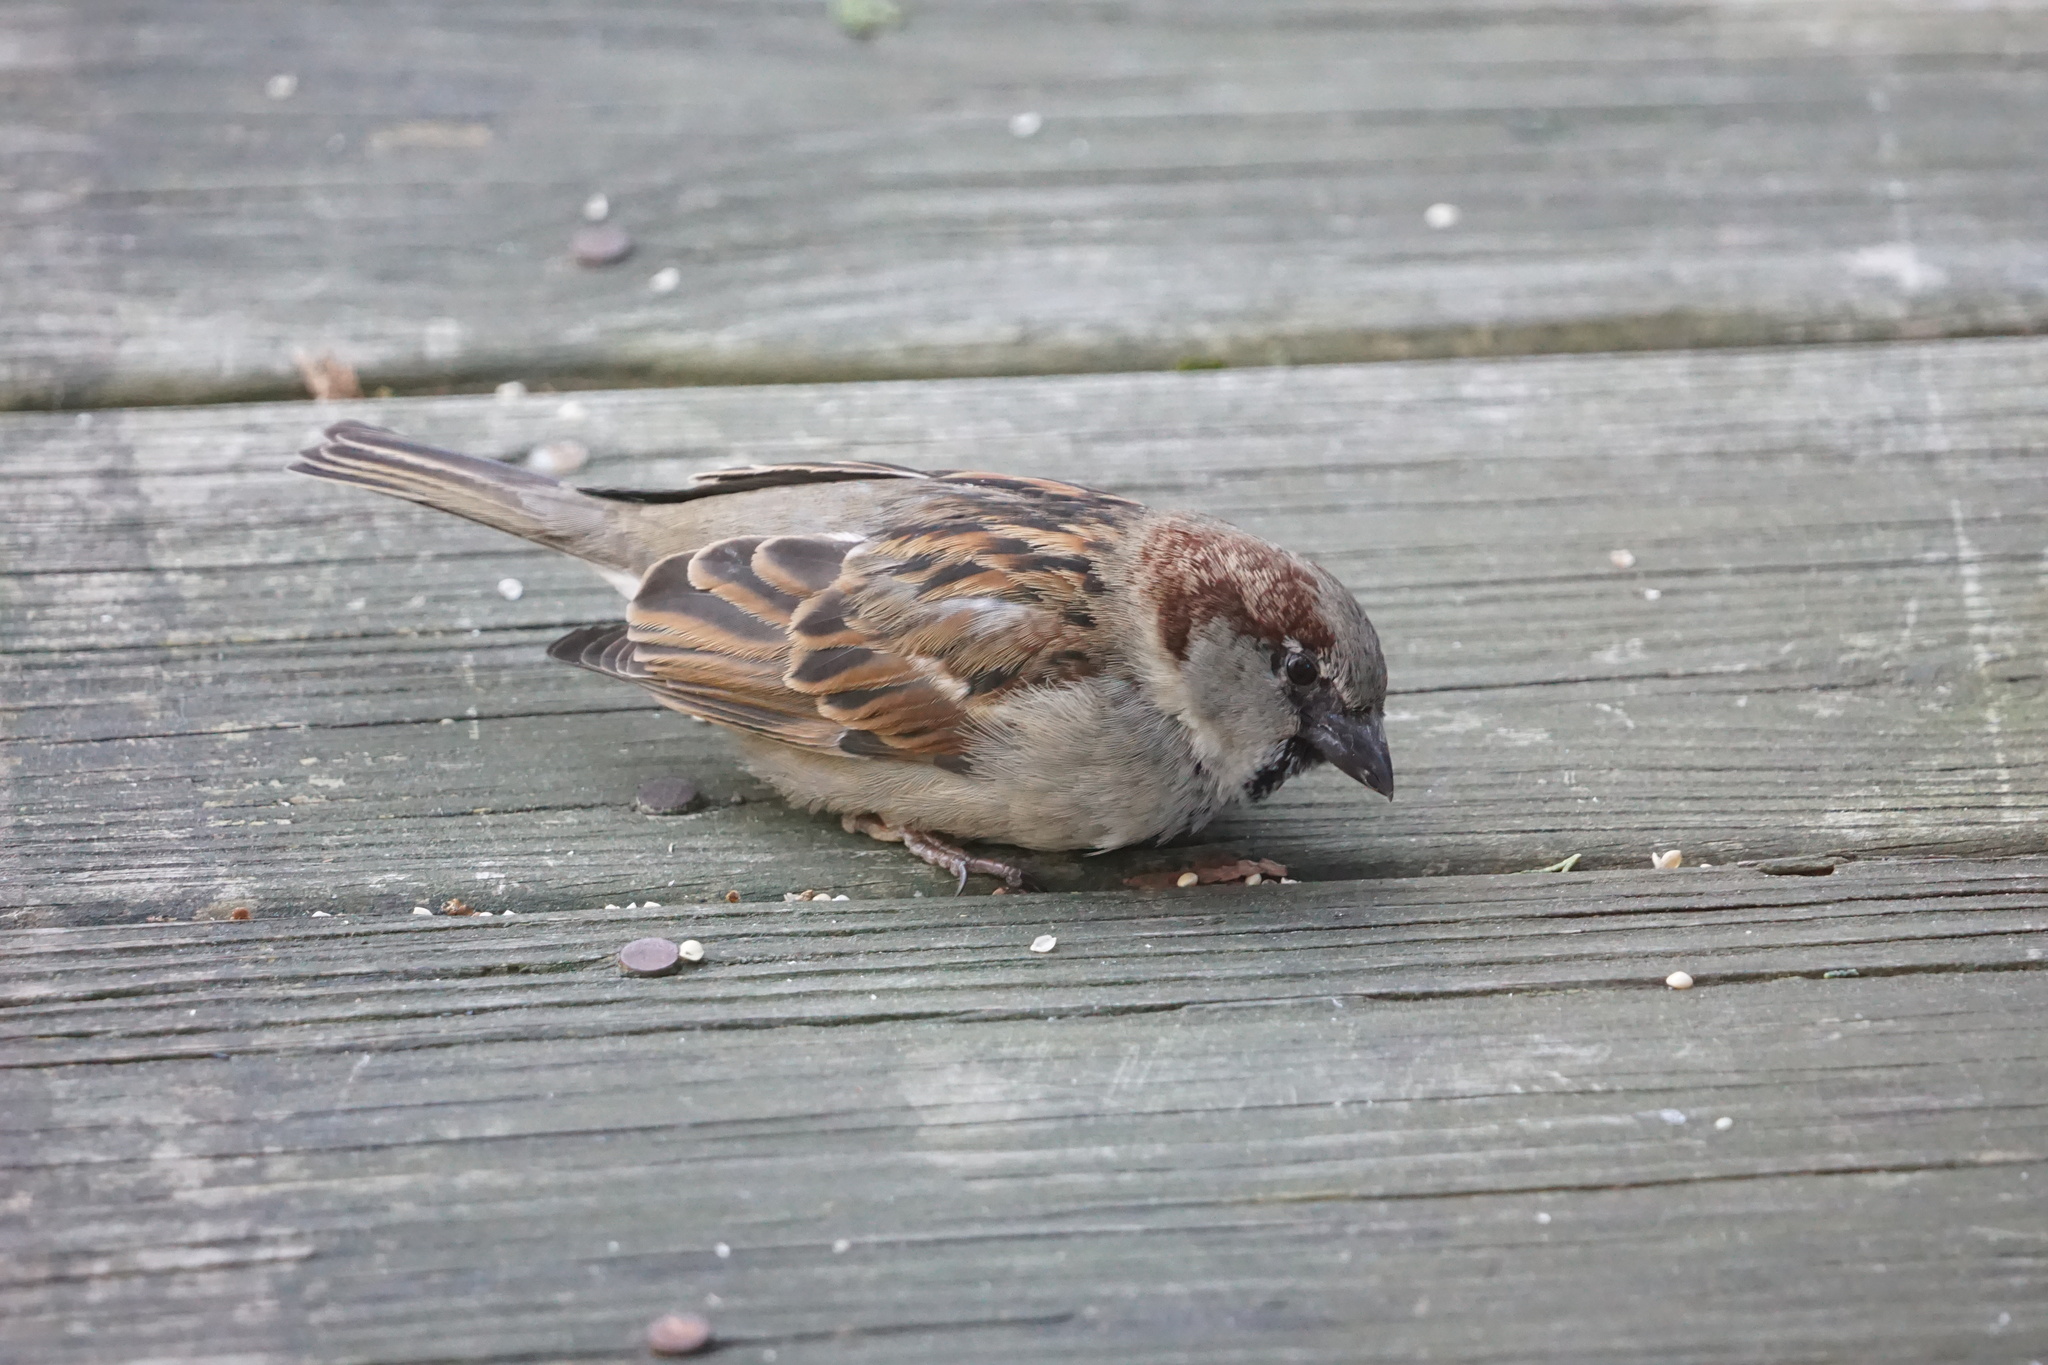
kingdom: Animalia
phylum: Chordata
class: Aves
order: Passeriformes
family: Passeridae
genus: Passer
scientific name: Passer domesticus
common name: House sparrow
